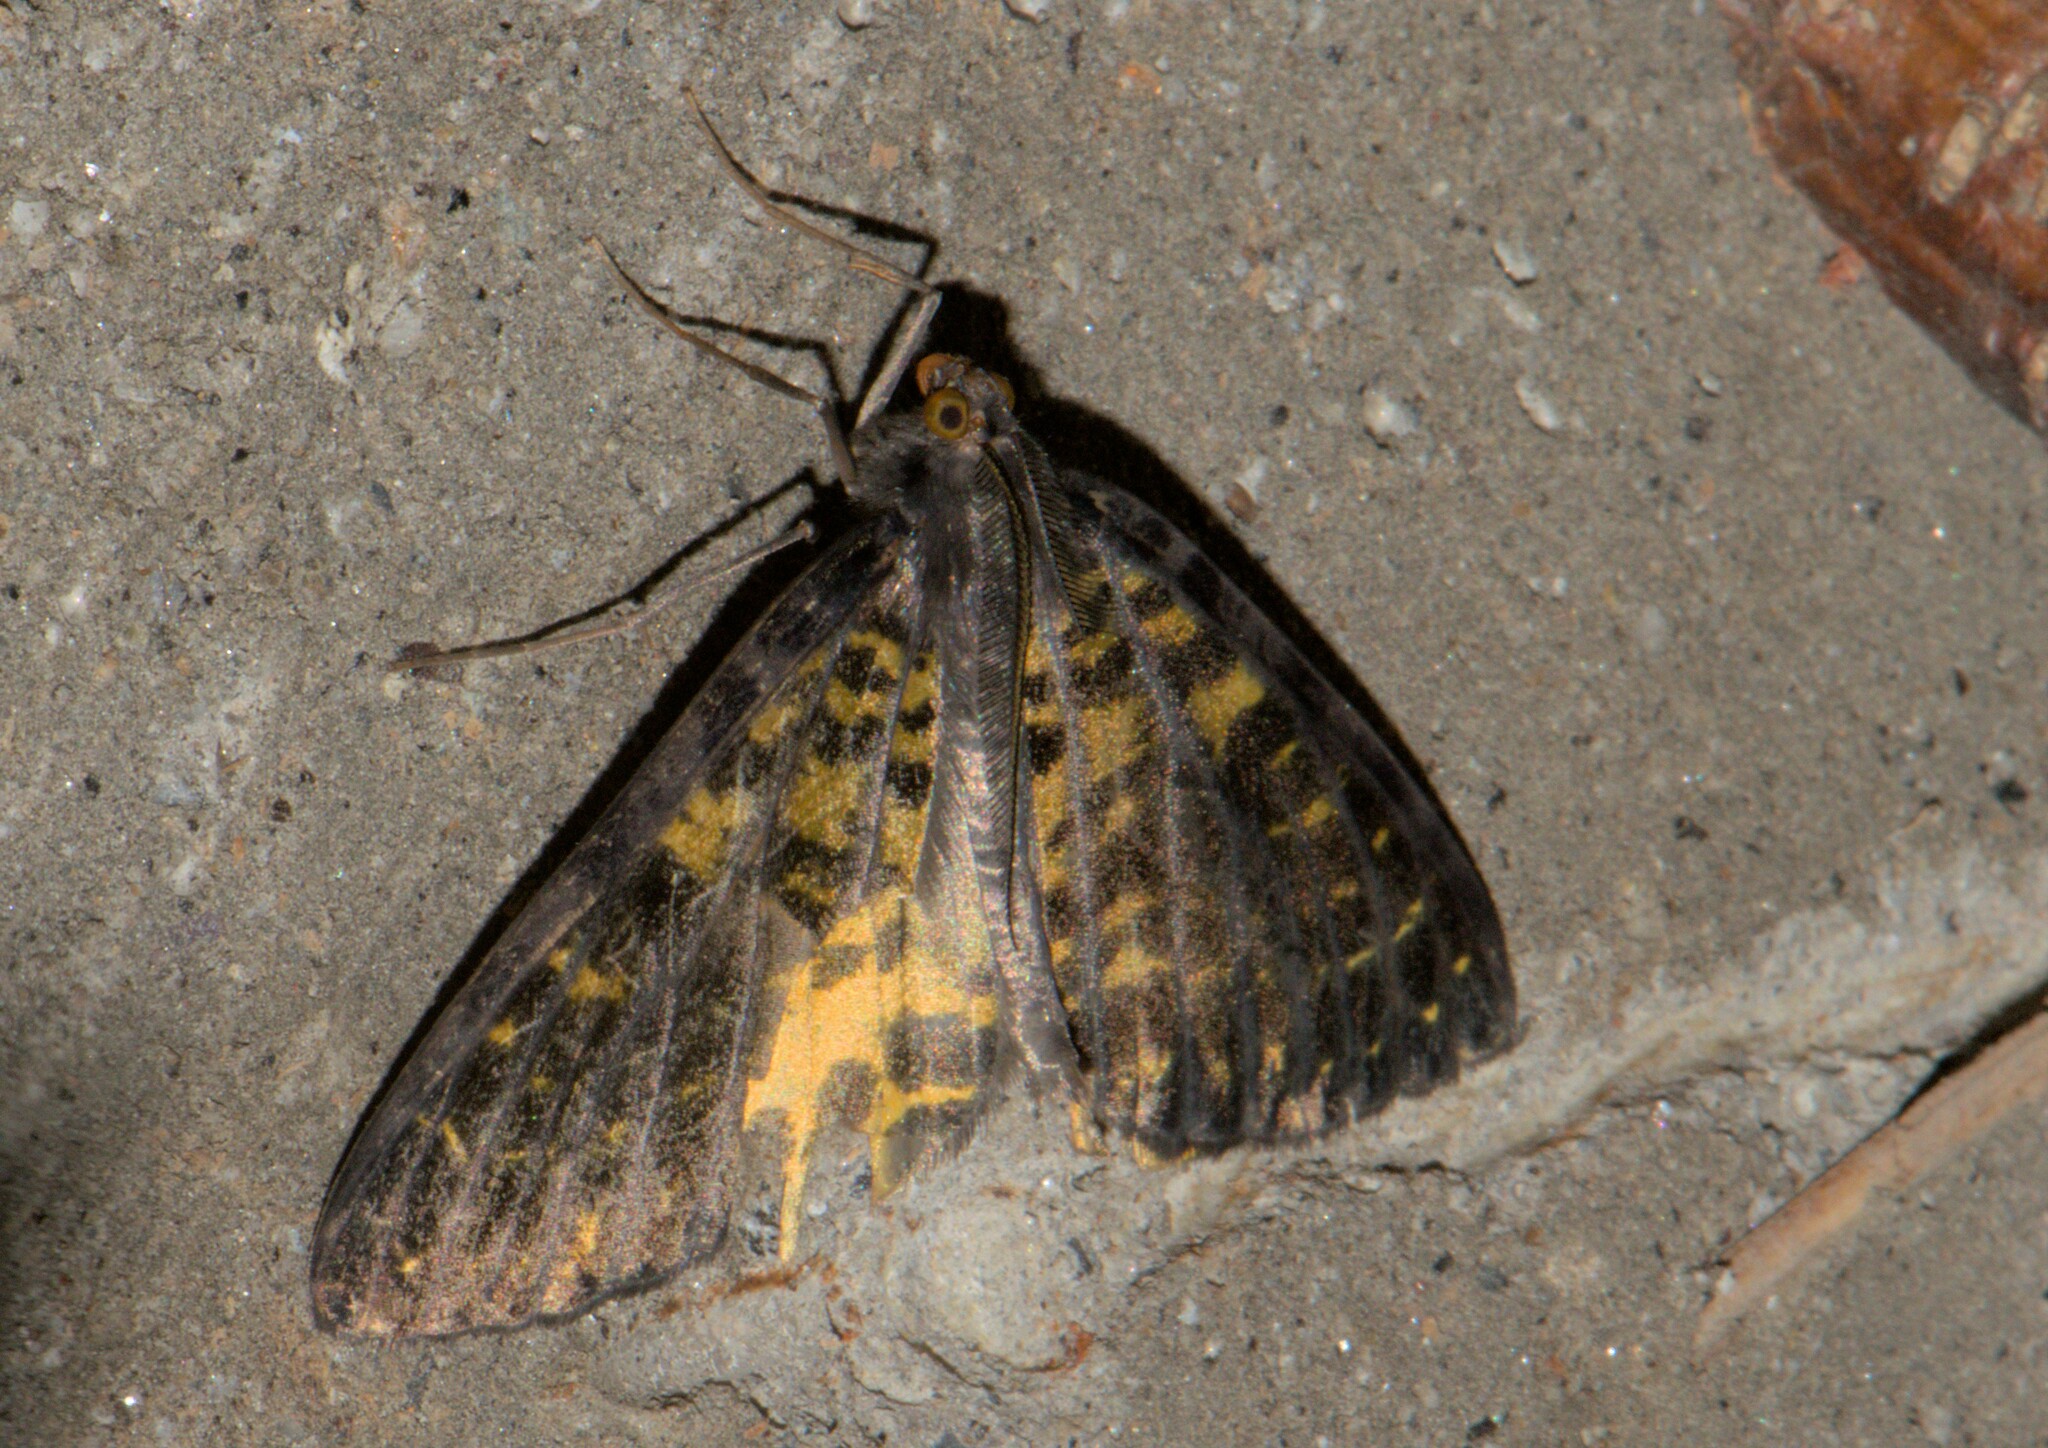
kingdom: Animalia
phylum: Arthropoda
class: Insecta
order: Lepidoptera
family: Geometridae
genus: Arichanna
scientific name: Arichanna sinica
